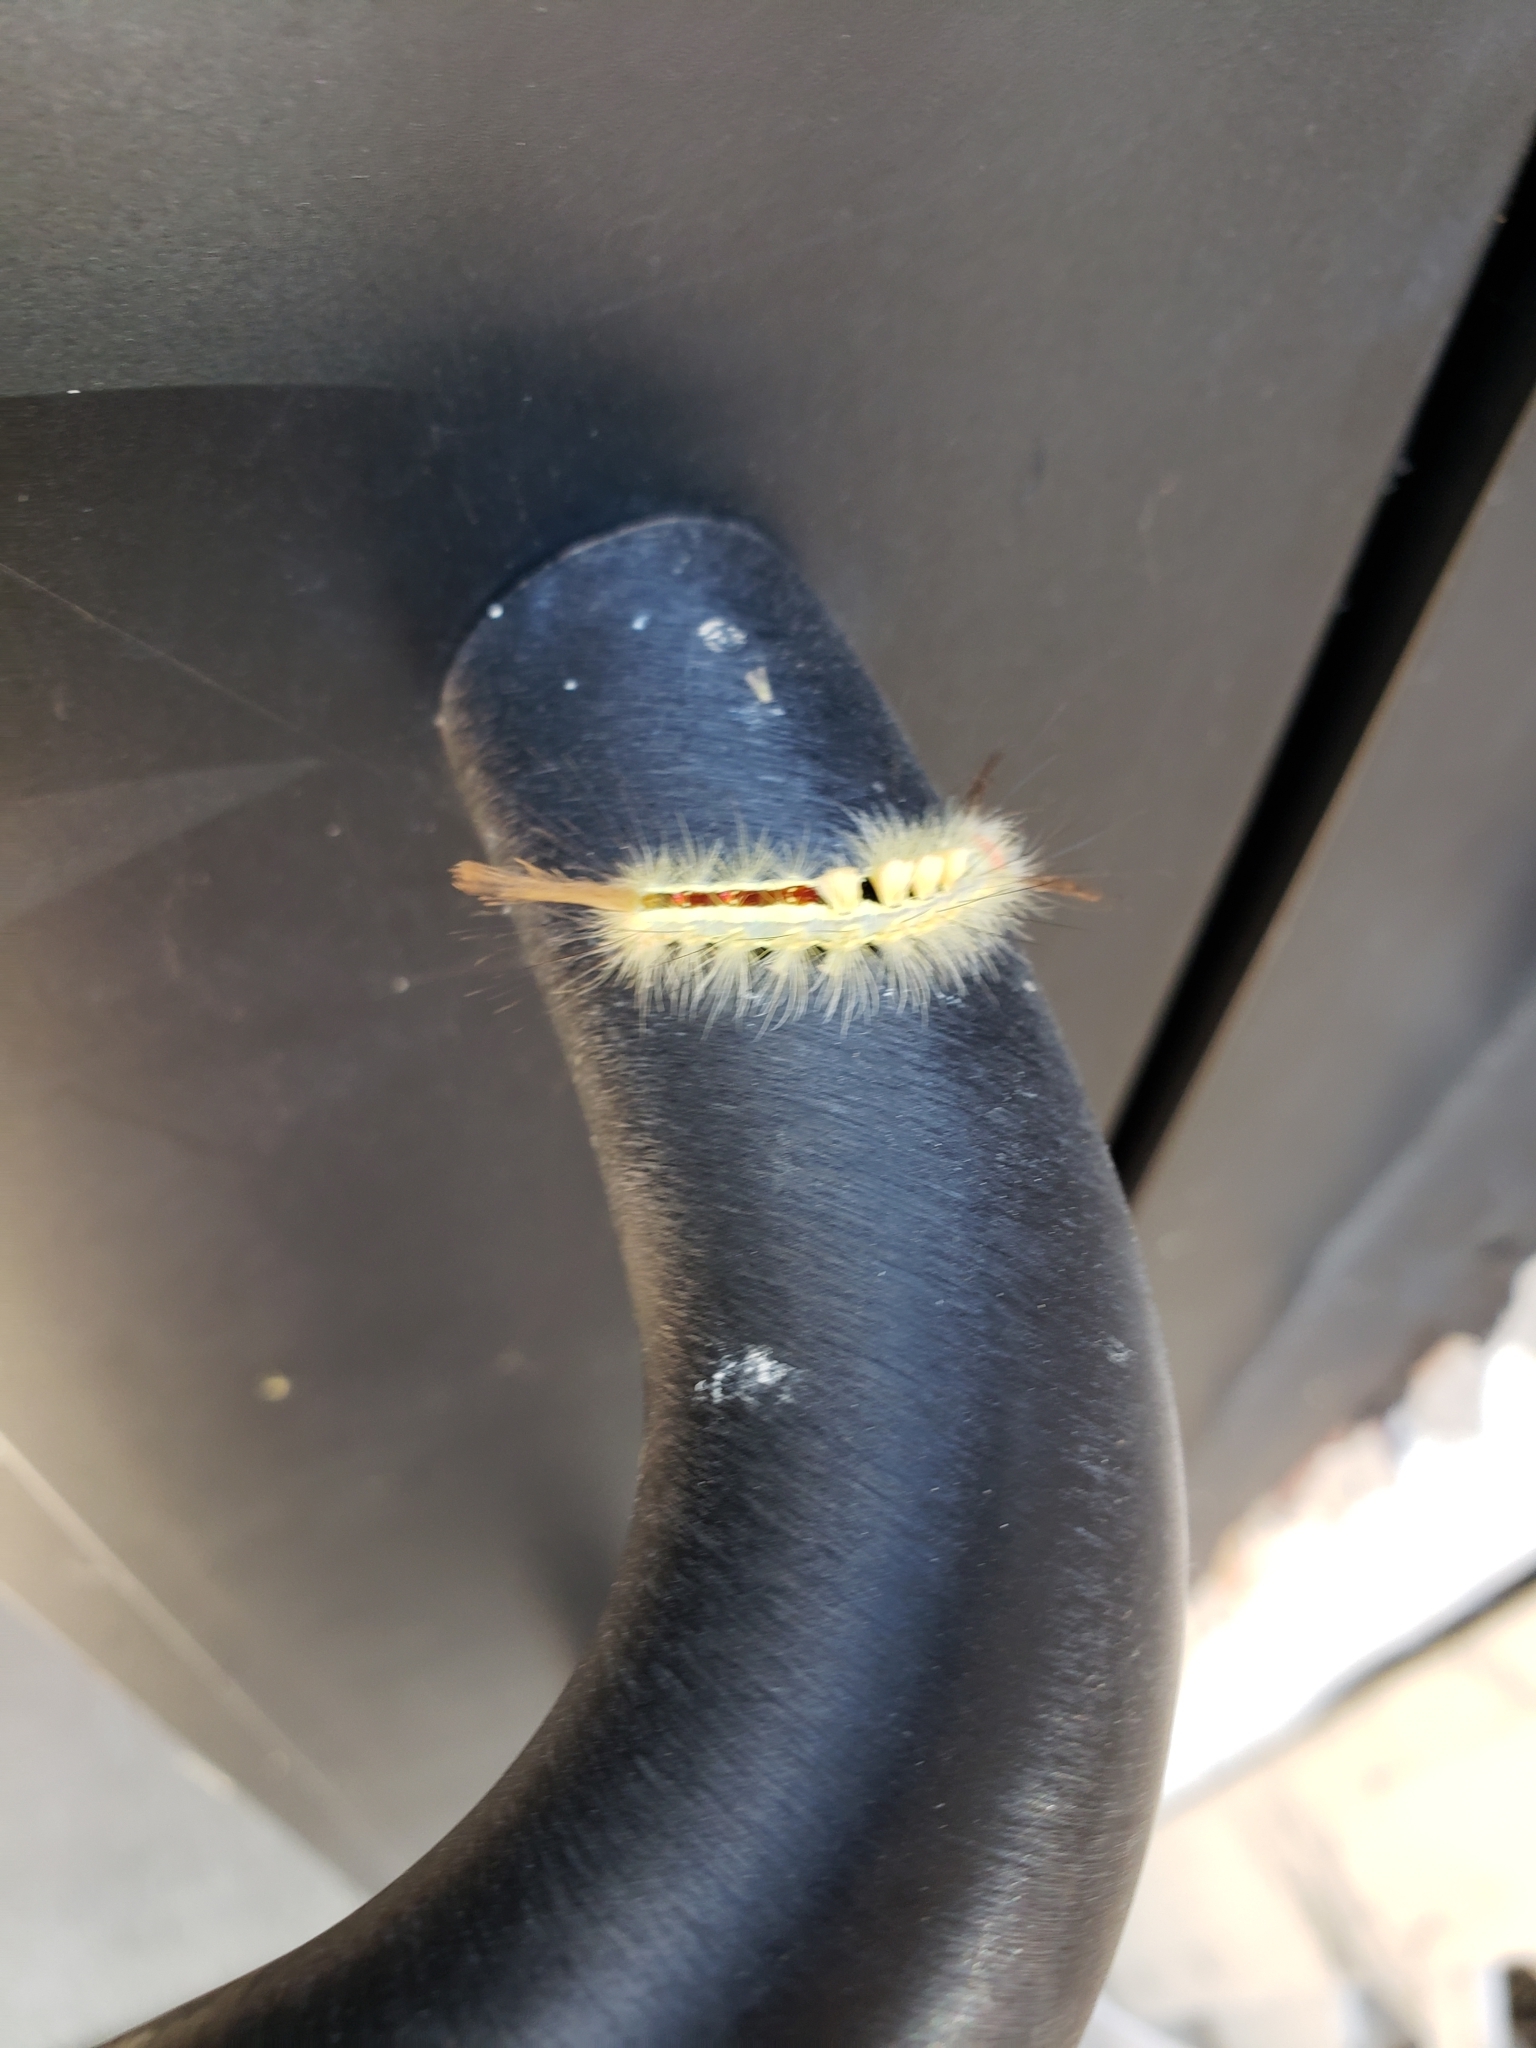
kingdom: Animalia
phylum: Arthropoda
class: Insecta
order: Lepidoptera
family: Erebidae
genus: Orgyia
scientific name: Orgyia leucostigma
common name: White-marked tussock moth
